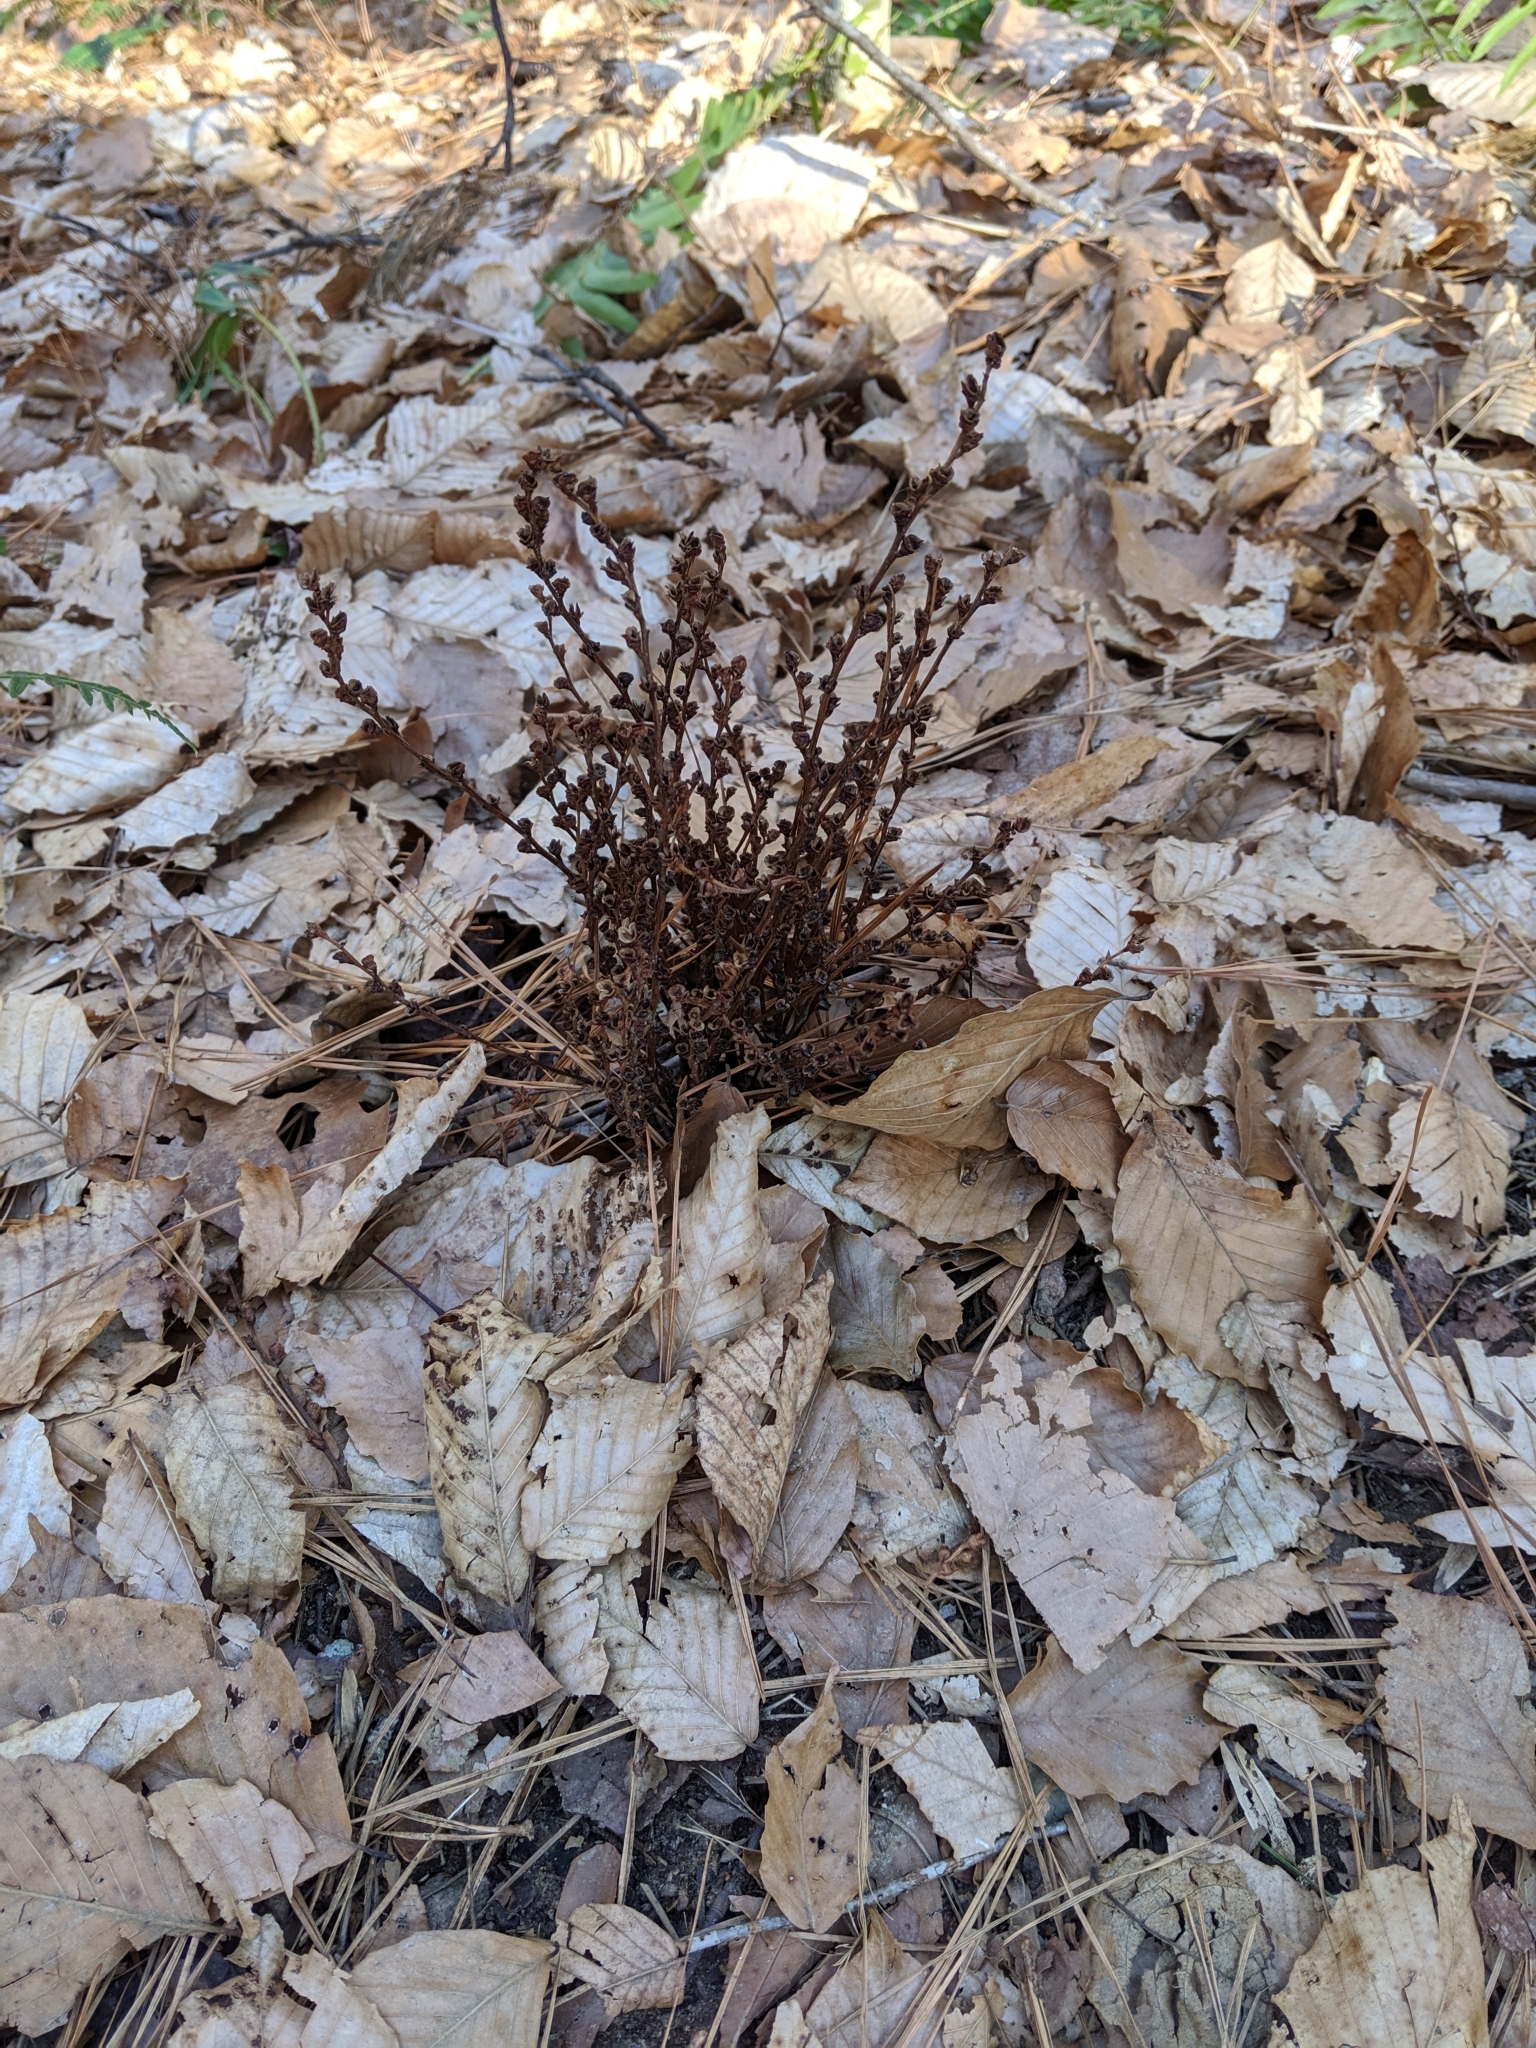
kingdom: Plantae
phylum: Tracheophyta
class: Magnoliopsida
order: Lamiales
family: Orobanchaceae
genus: Epifagus
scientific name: Epifagus virginiana
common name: Beechdrops
